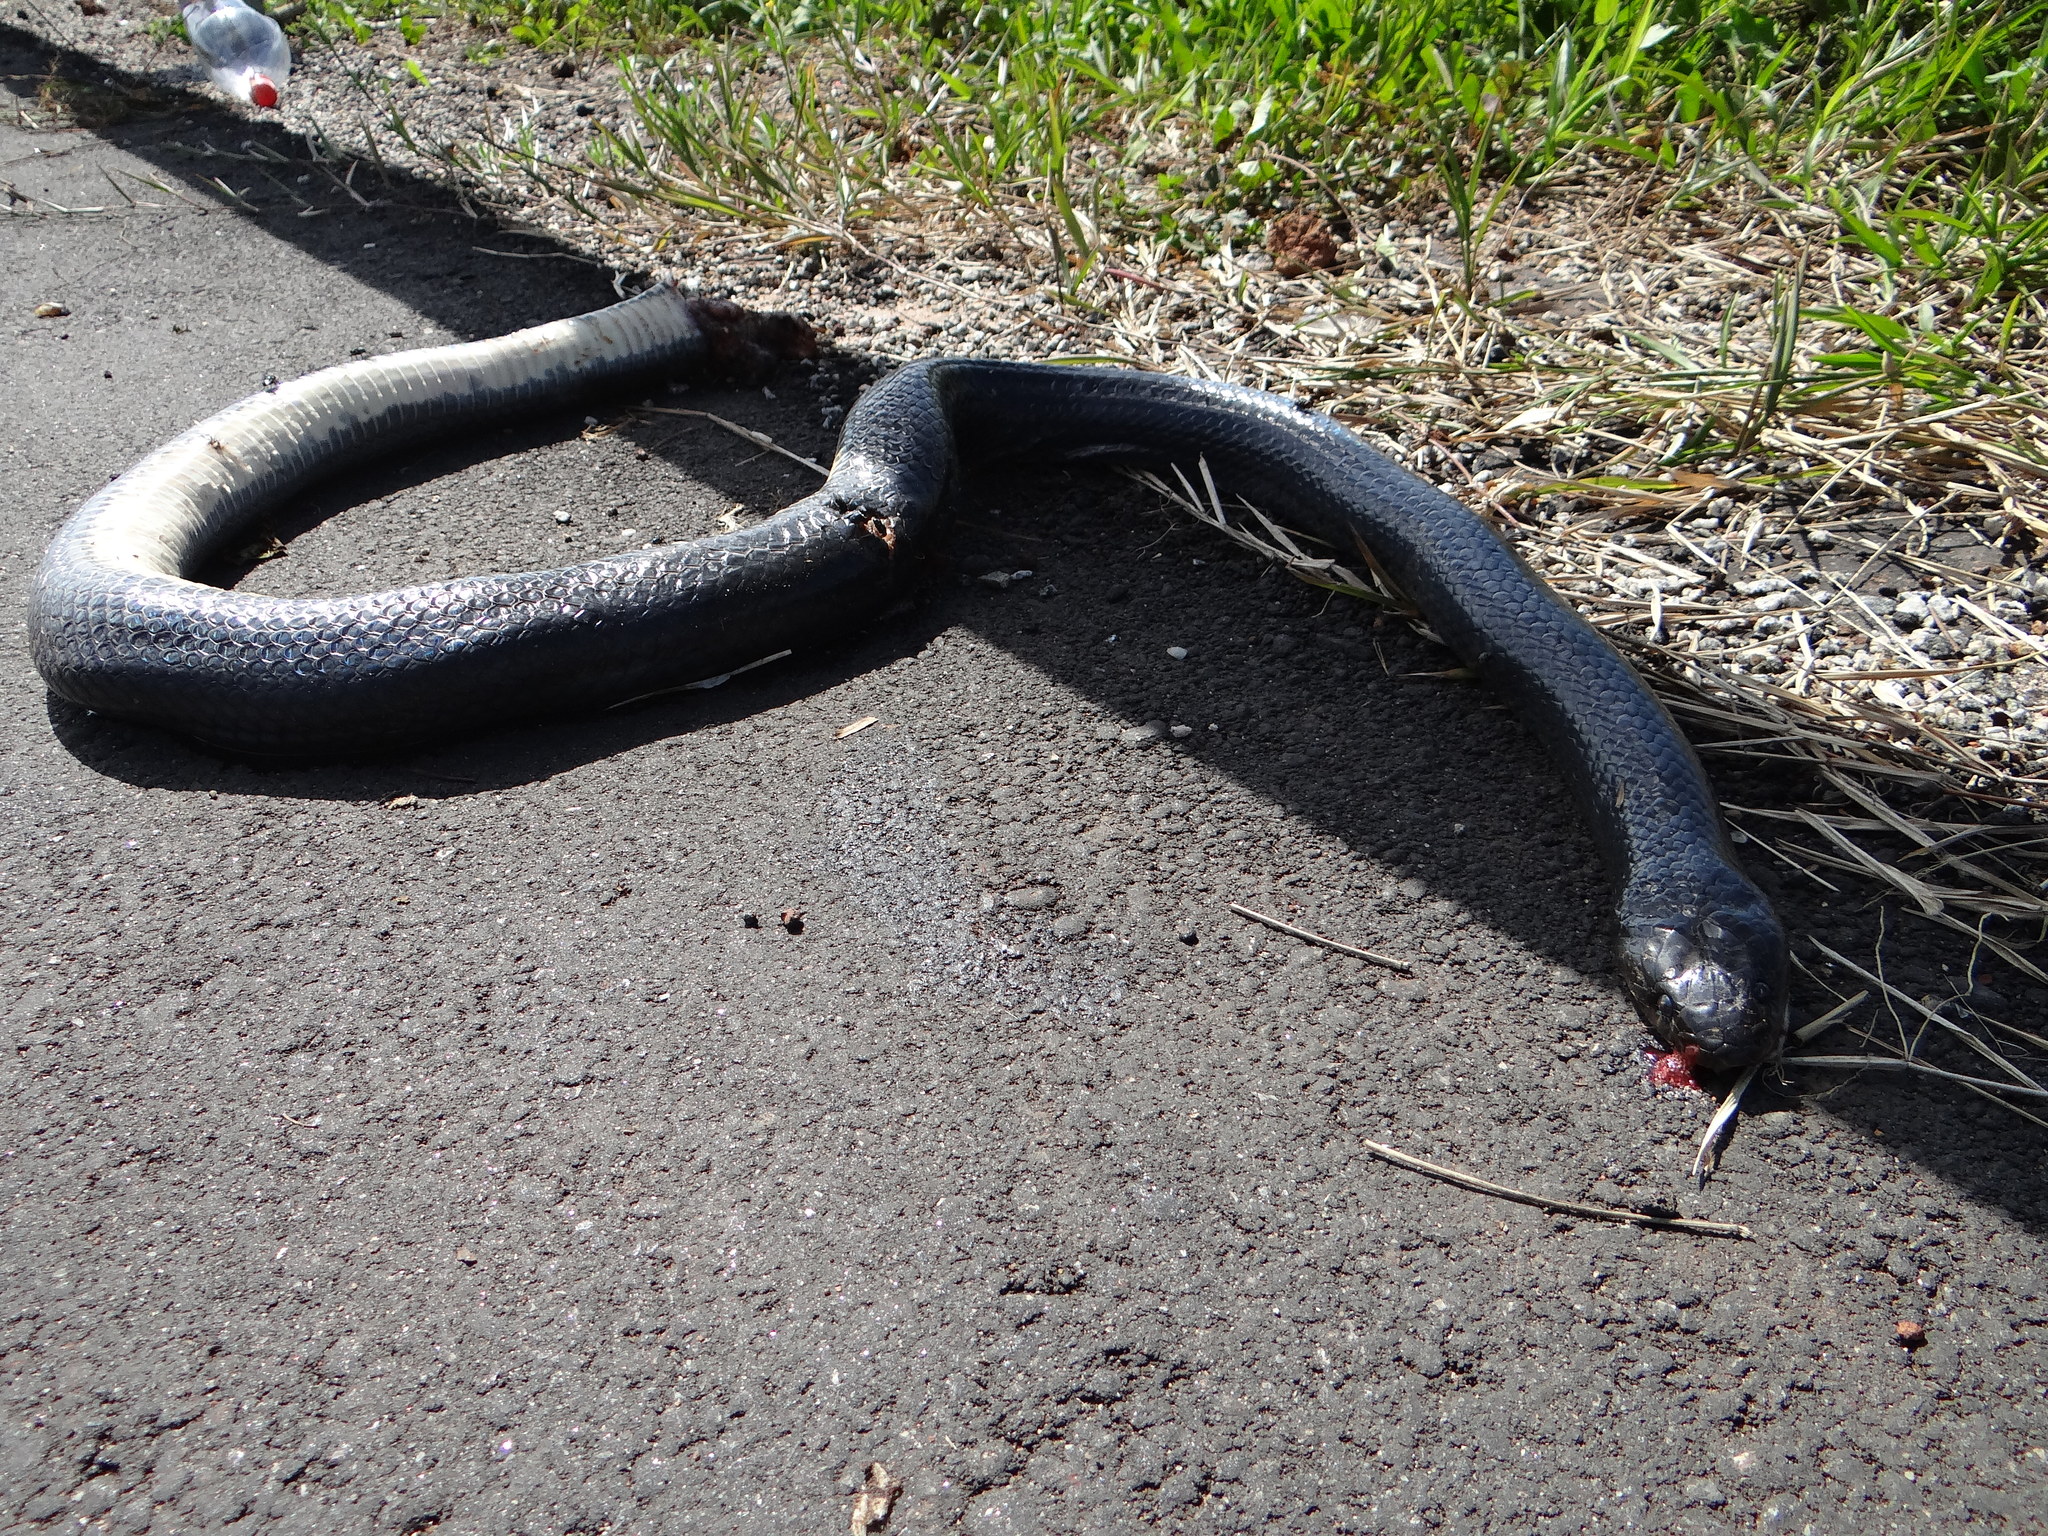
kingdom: Animalia
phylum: Chordata
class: Squamata
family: Colubridae
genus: Clelia
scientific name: Clelia clelia
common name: Mussurana
